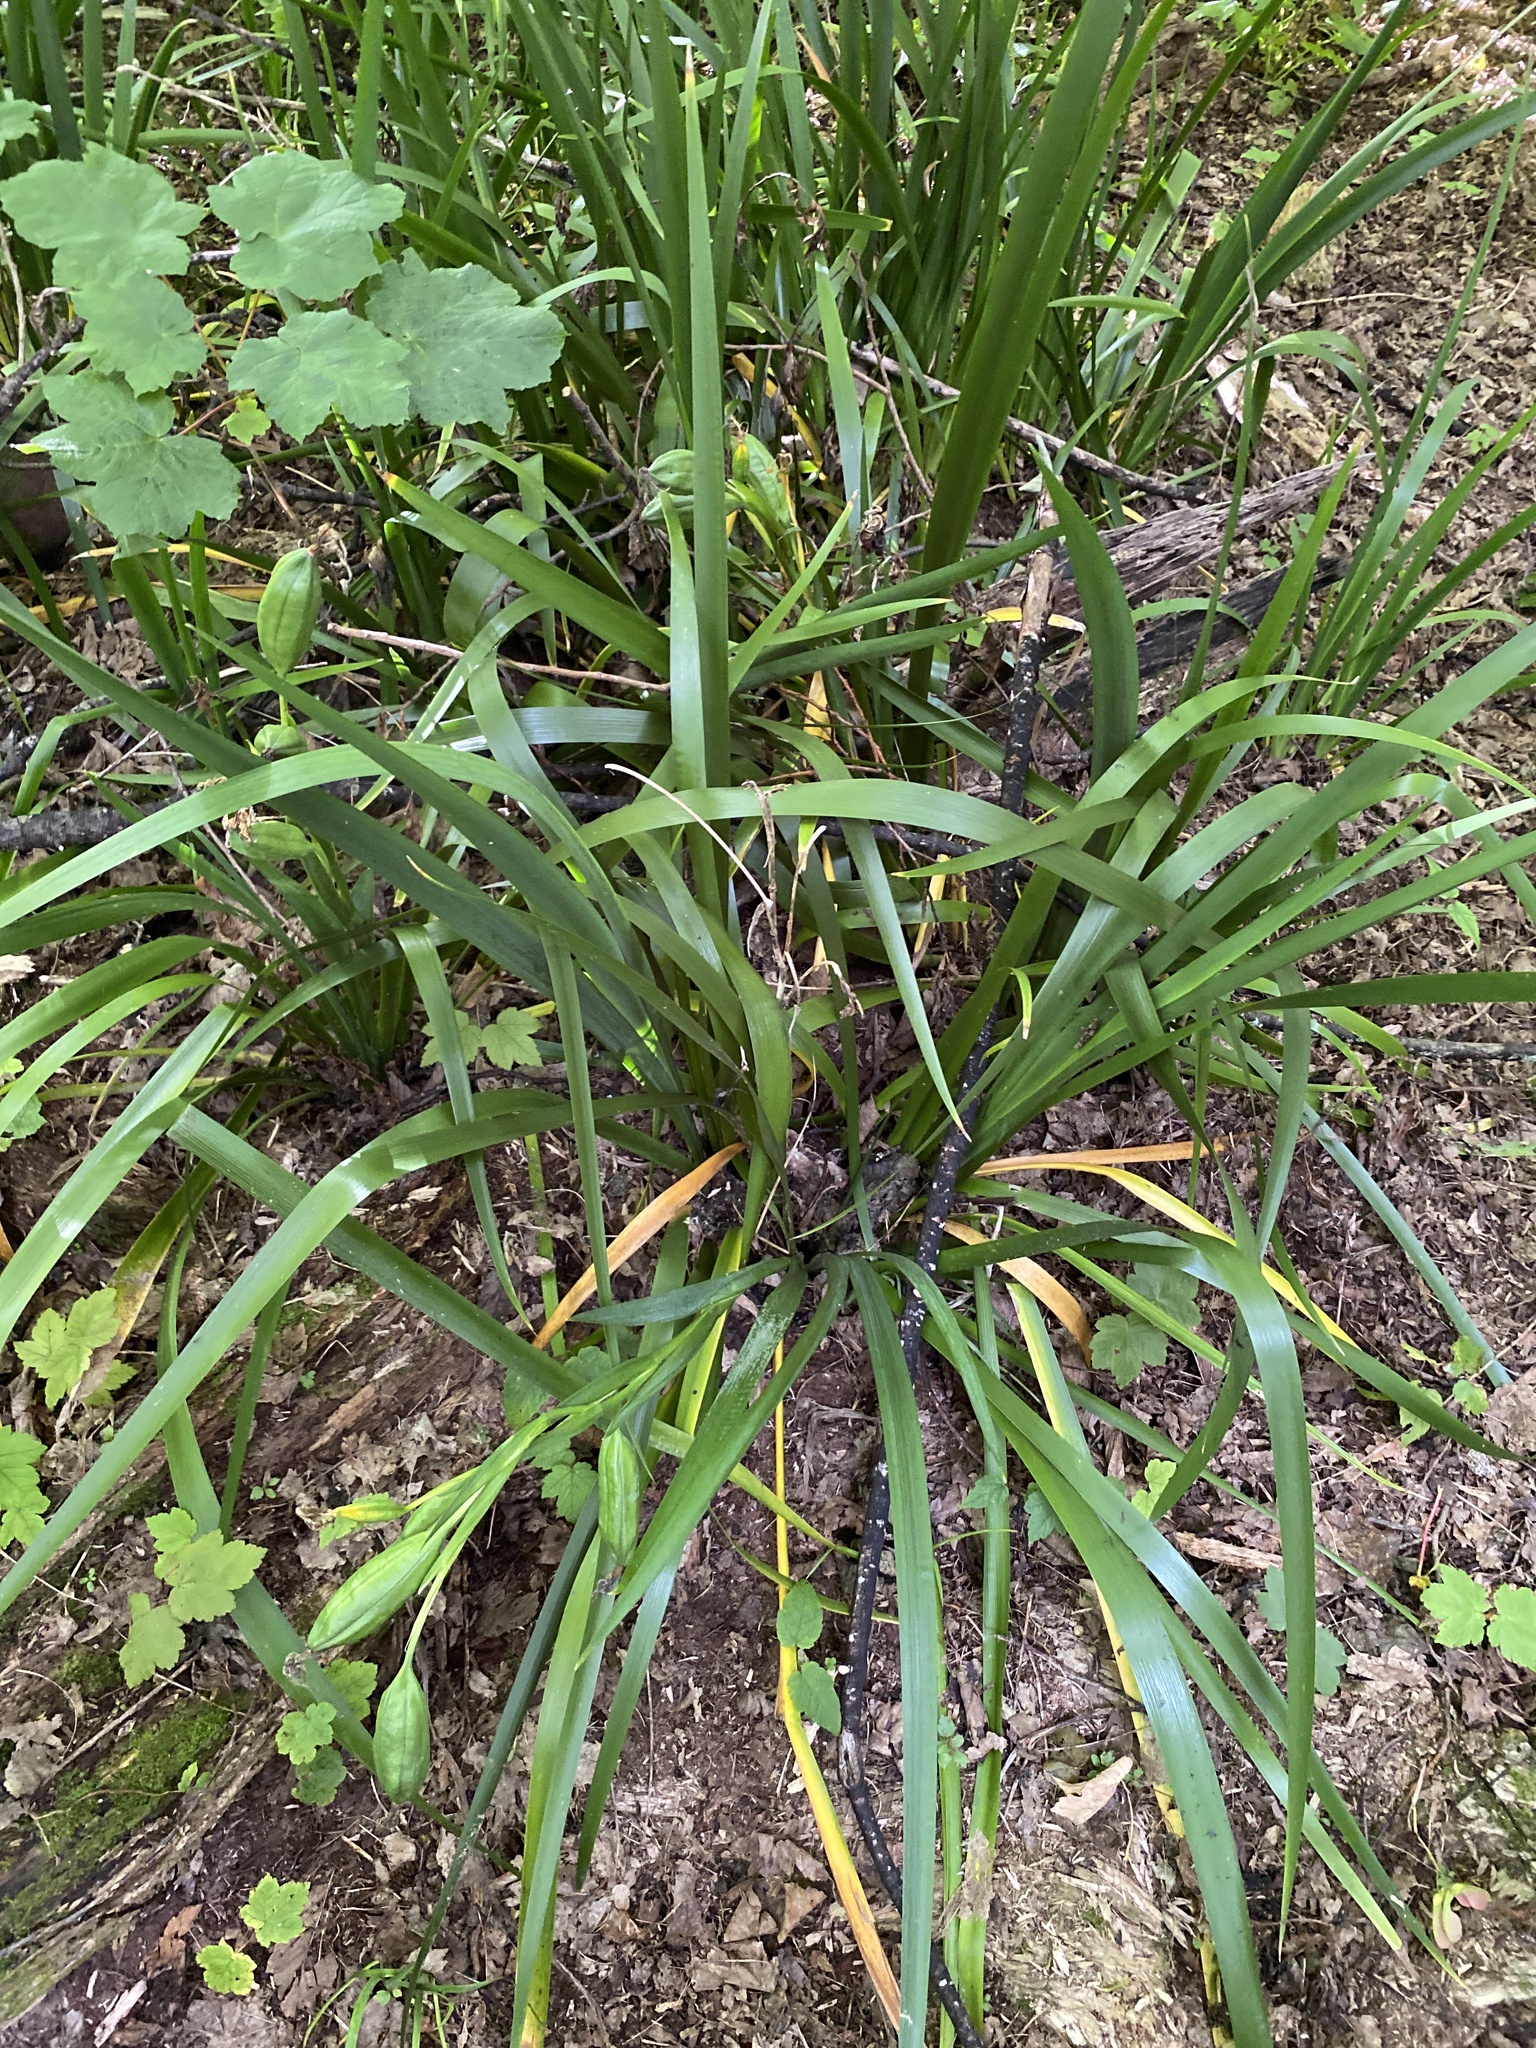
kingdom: Plantae
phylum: Tracheophyta
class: Liliopsida
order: Asparagales
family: Iridaceae
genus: Iris
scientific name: Iris foetidissima
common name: Stinking iris
